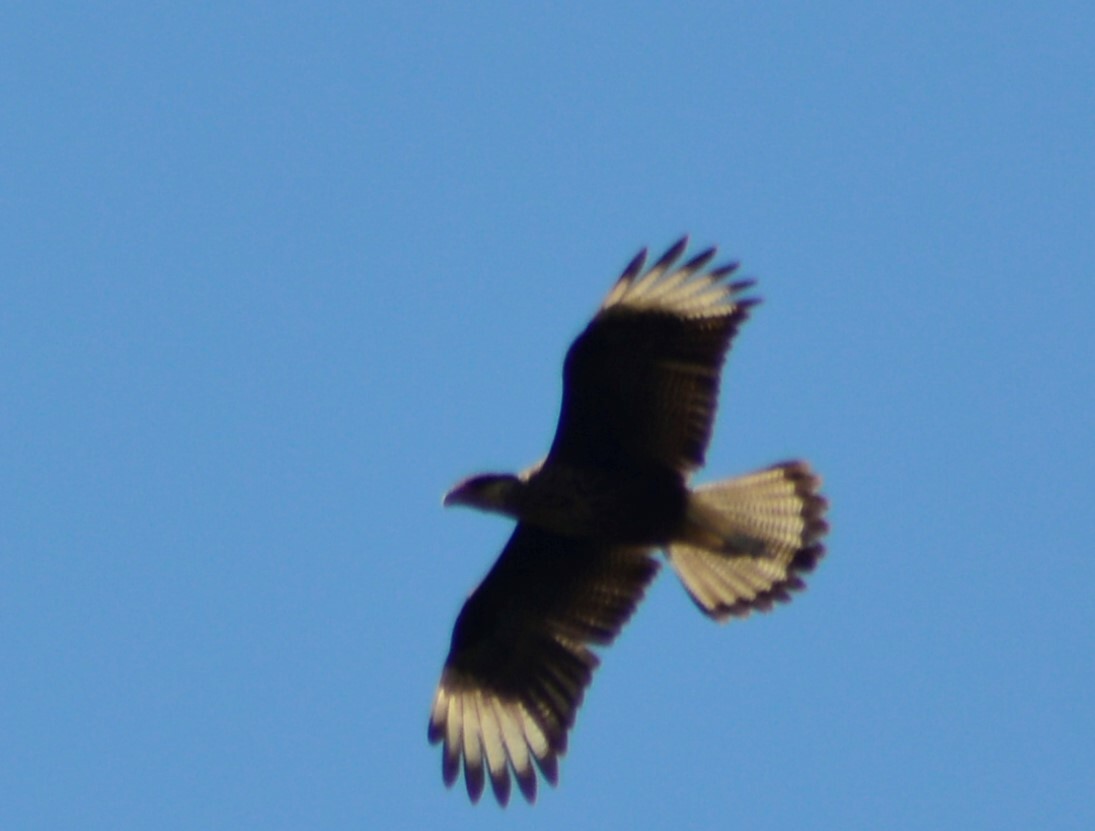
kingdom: Animalia
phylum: Chordata
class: Aves
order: Falconiformes
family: Falconidae
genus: Caracara
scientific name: Caracara plancus
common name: Southern caracara
